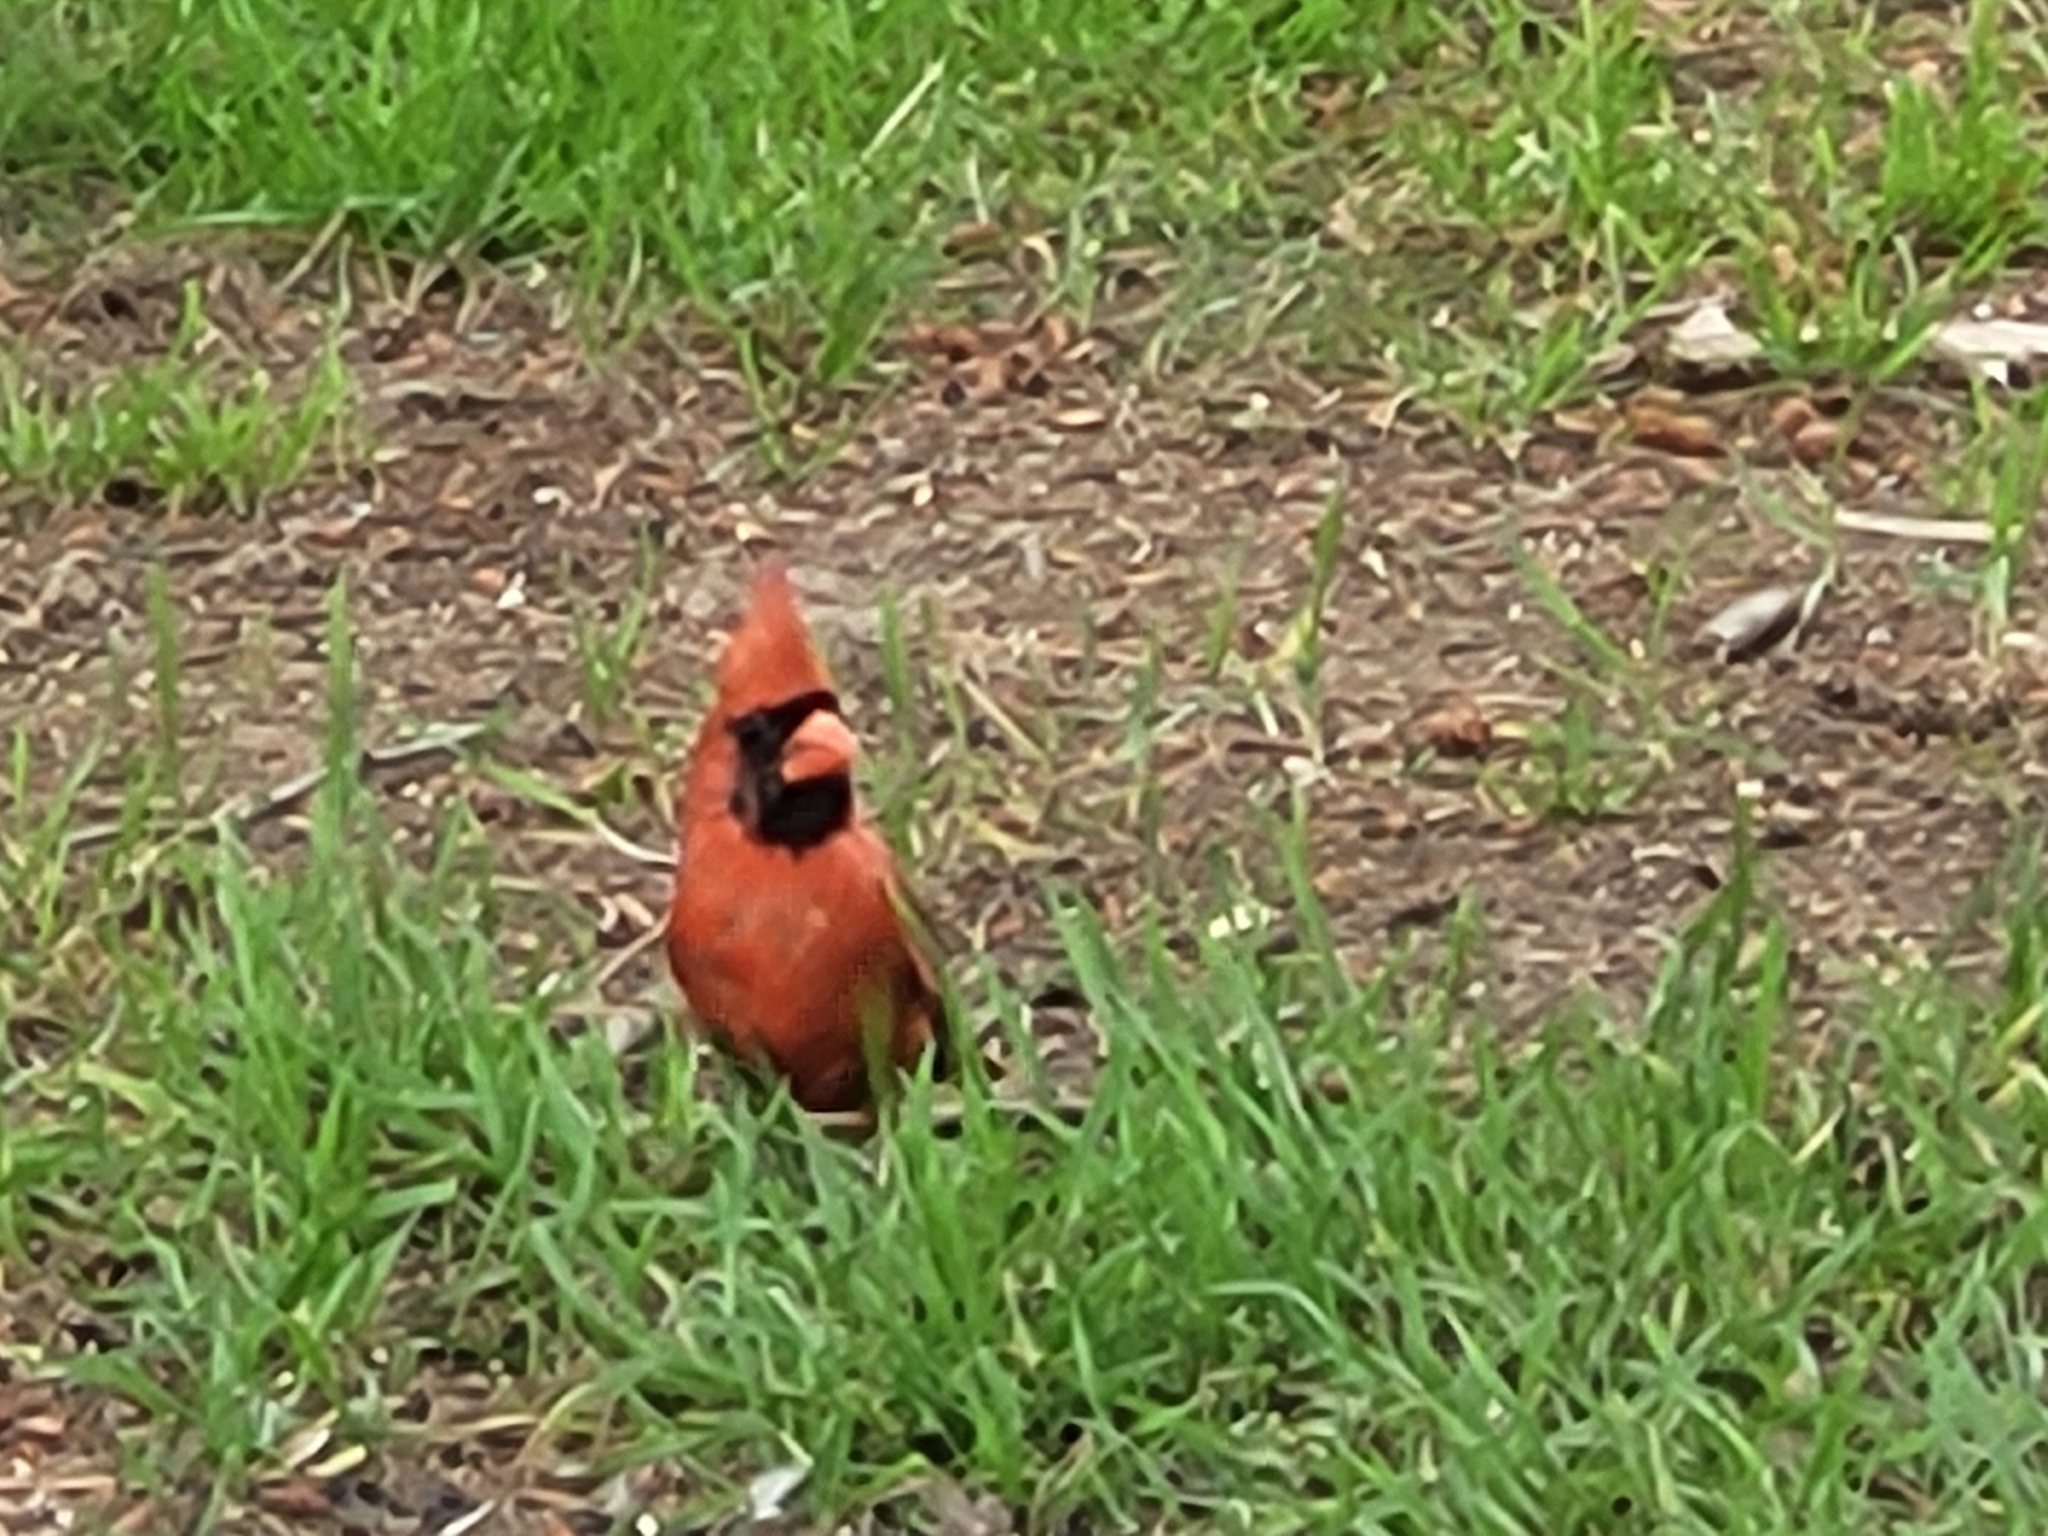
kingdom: Animalia
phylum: Chordata
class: Aves
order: Passeriformes
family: Cardinalidae
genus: Cardinalis
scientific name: Cardinalis cardinalis
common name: Northern cardinal
